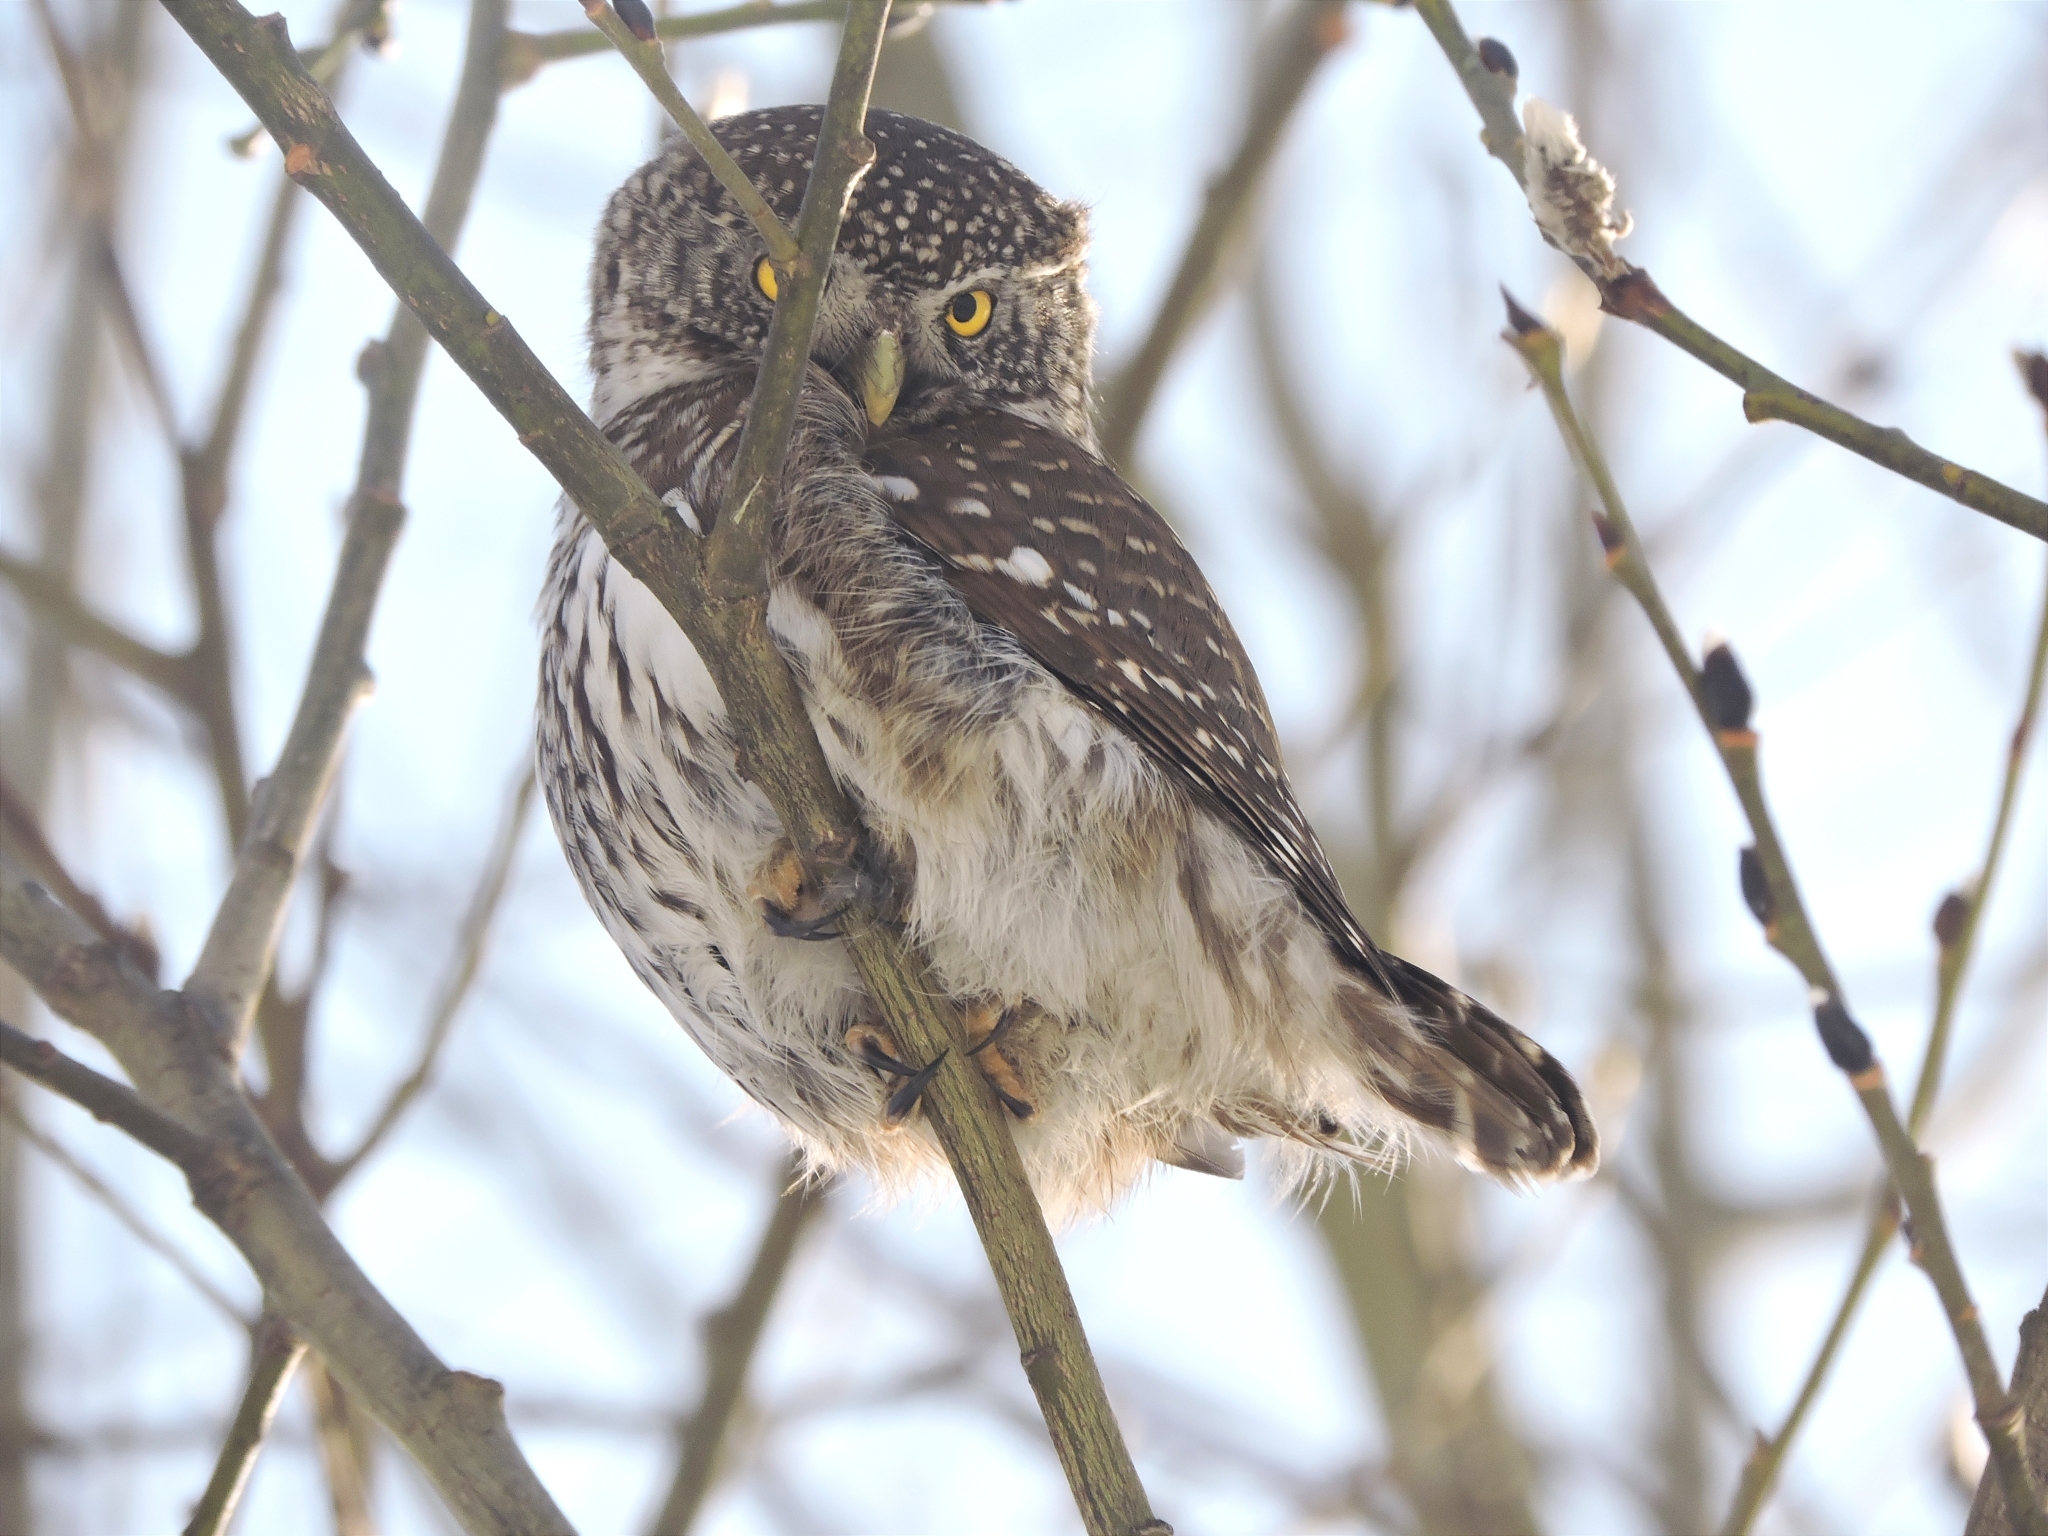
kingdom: Animalia
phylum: Chordata
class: Aves
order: Strigiformes
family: Strigidae
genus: Glaucidium
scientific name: Glaucidium passerinum
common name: Eurasian pygmy owl
